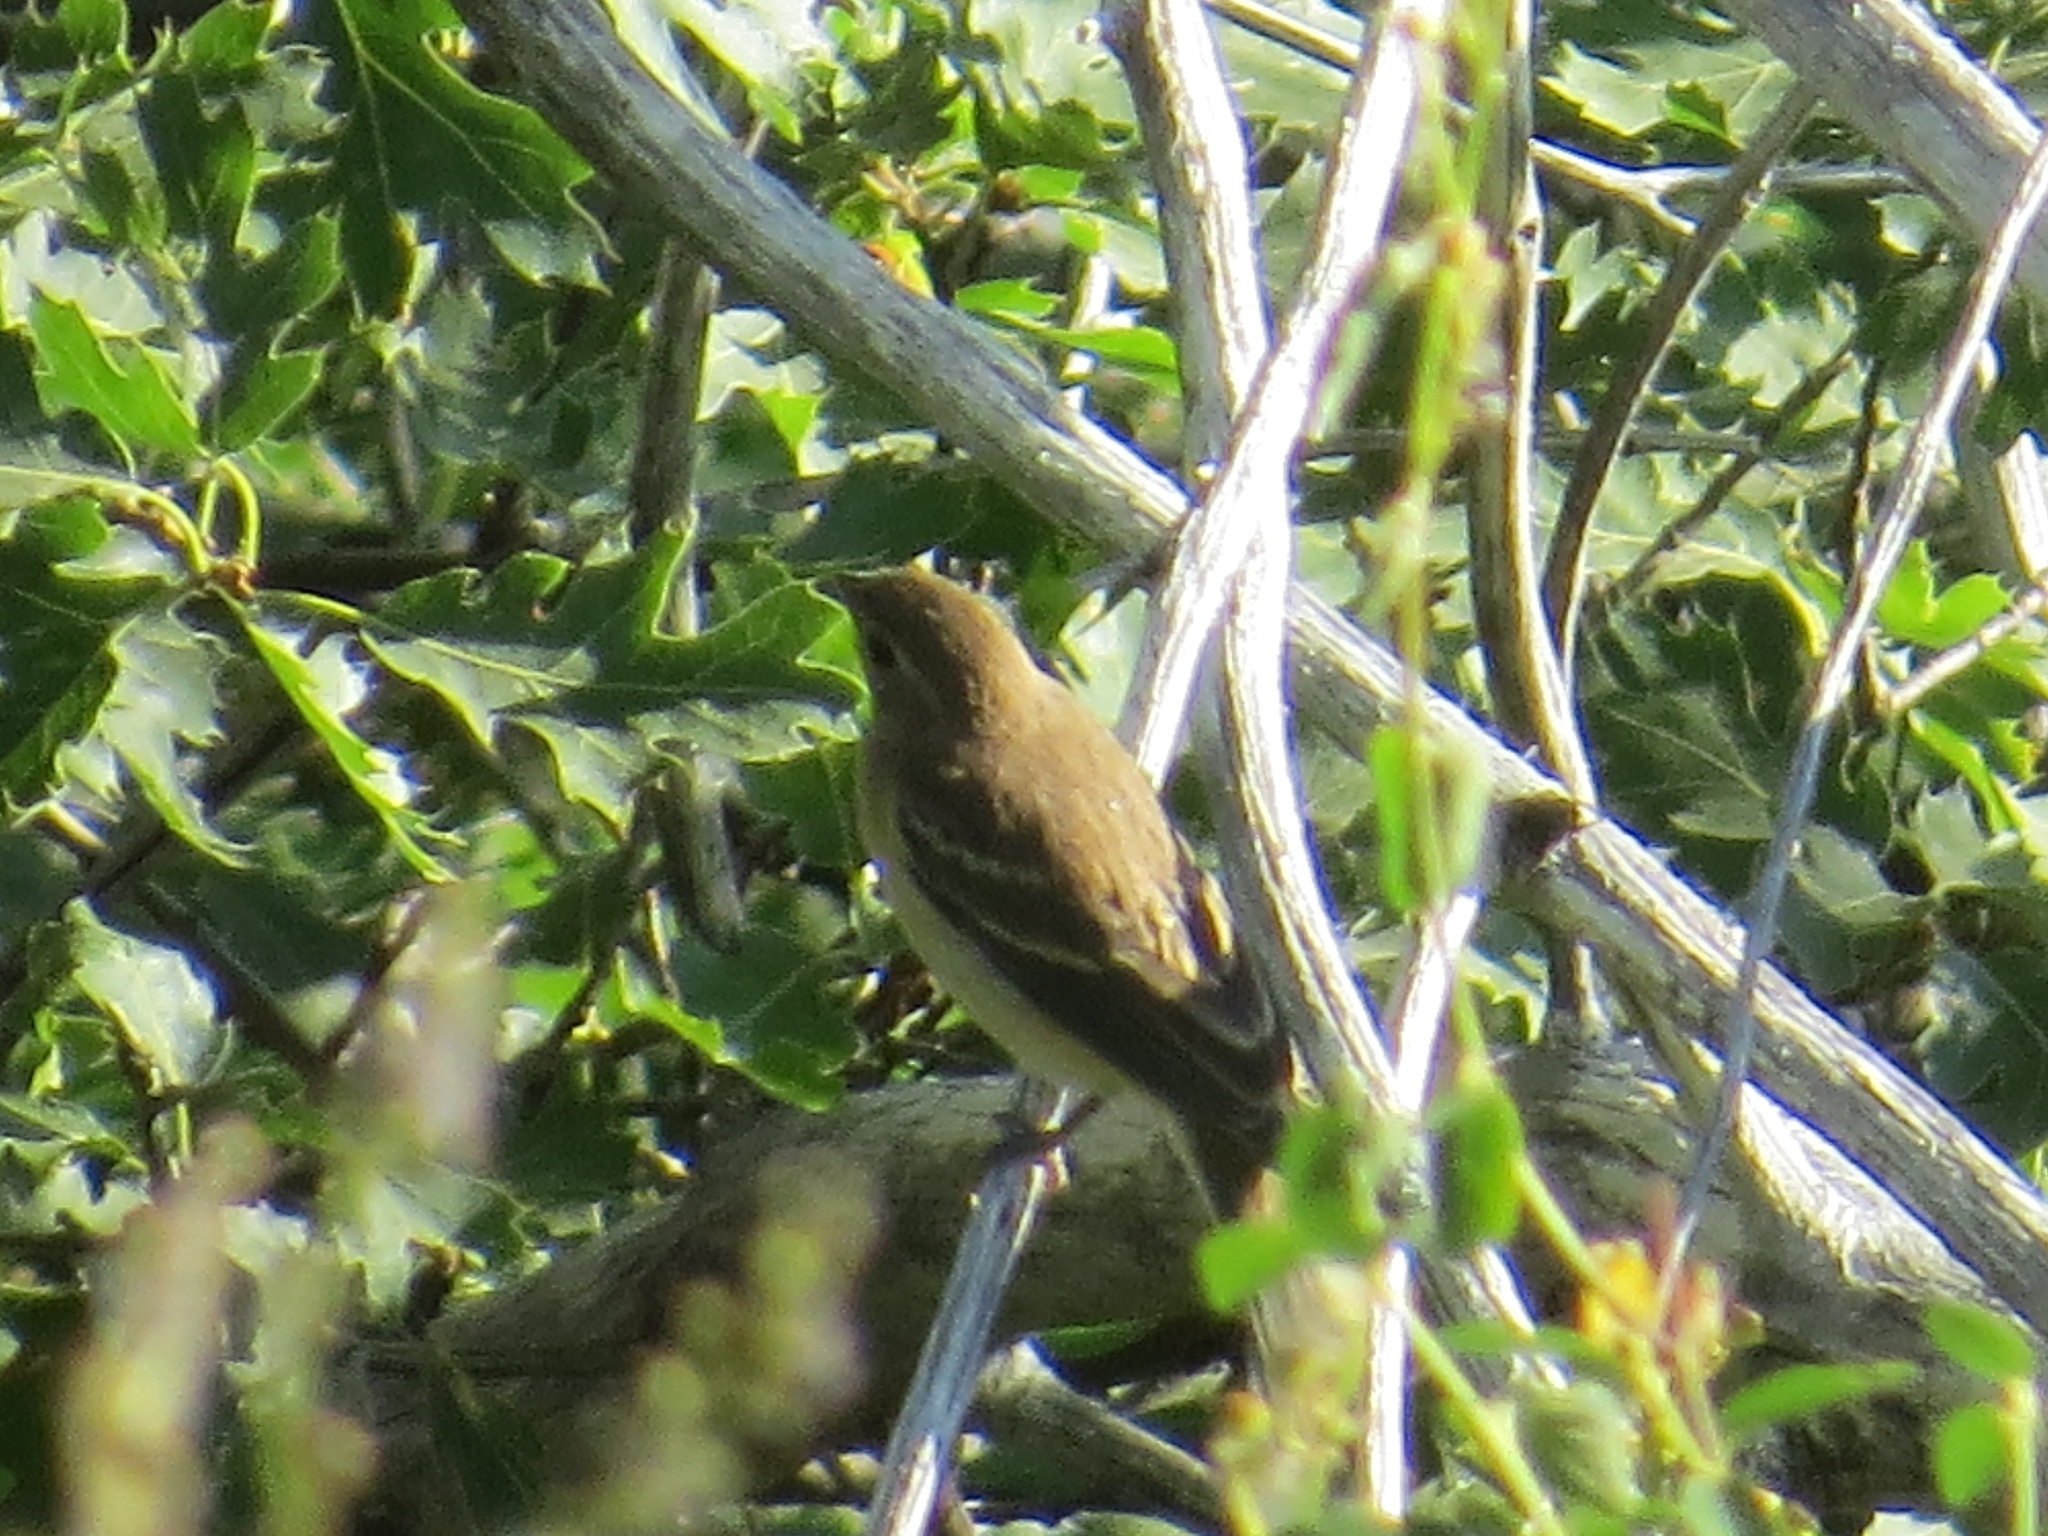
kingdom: Animalia
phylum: Chordata
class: Aves
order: Passeriformes
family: Cardinalidae
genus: Passerina
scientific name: Passerina amoena
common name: Lazuli bunting
